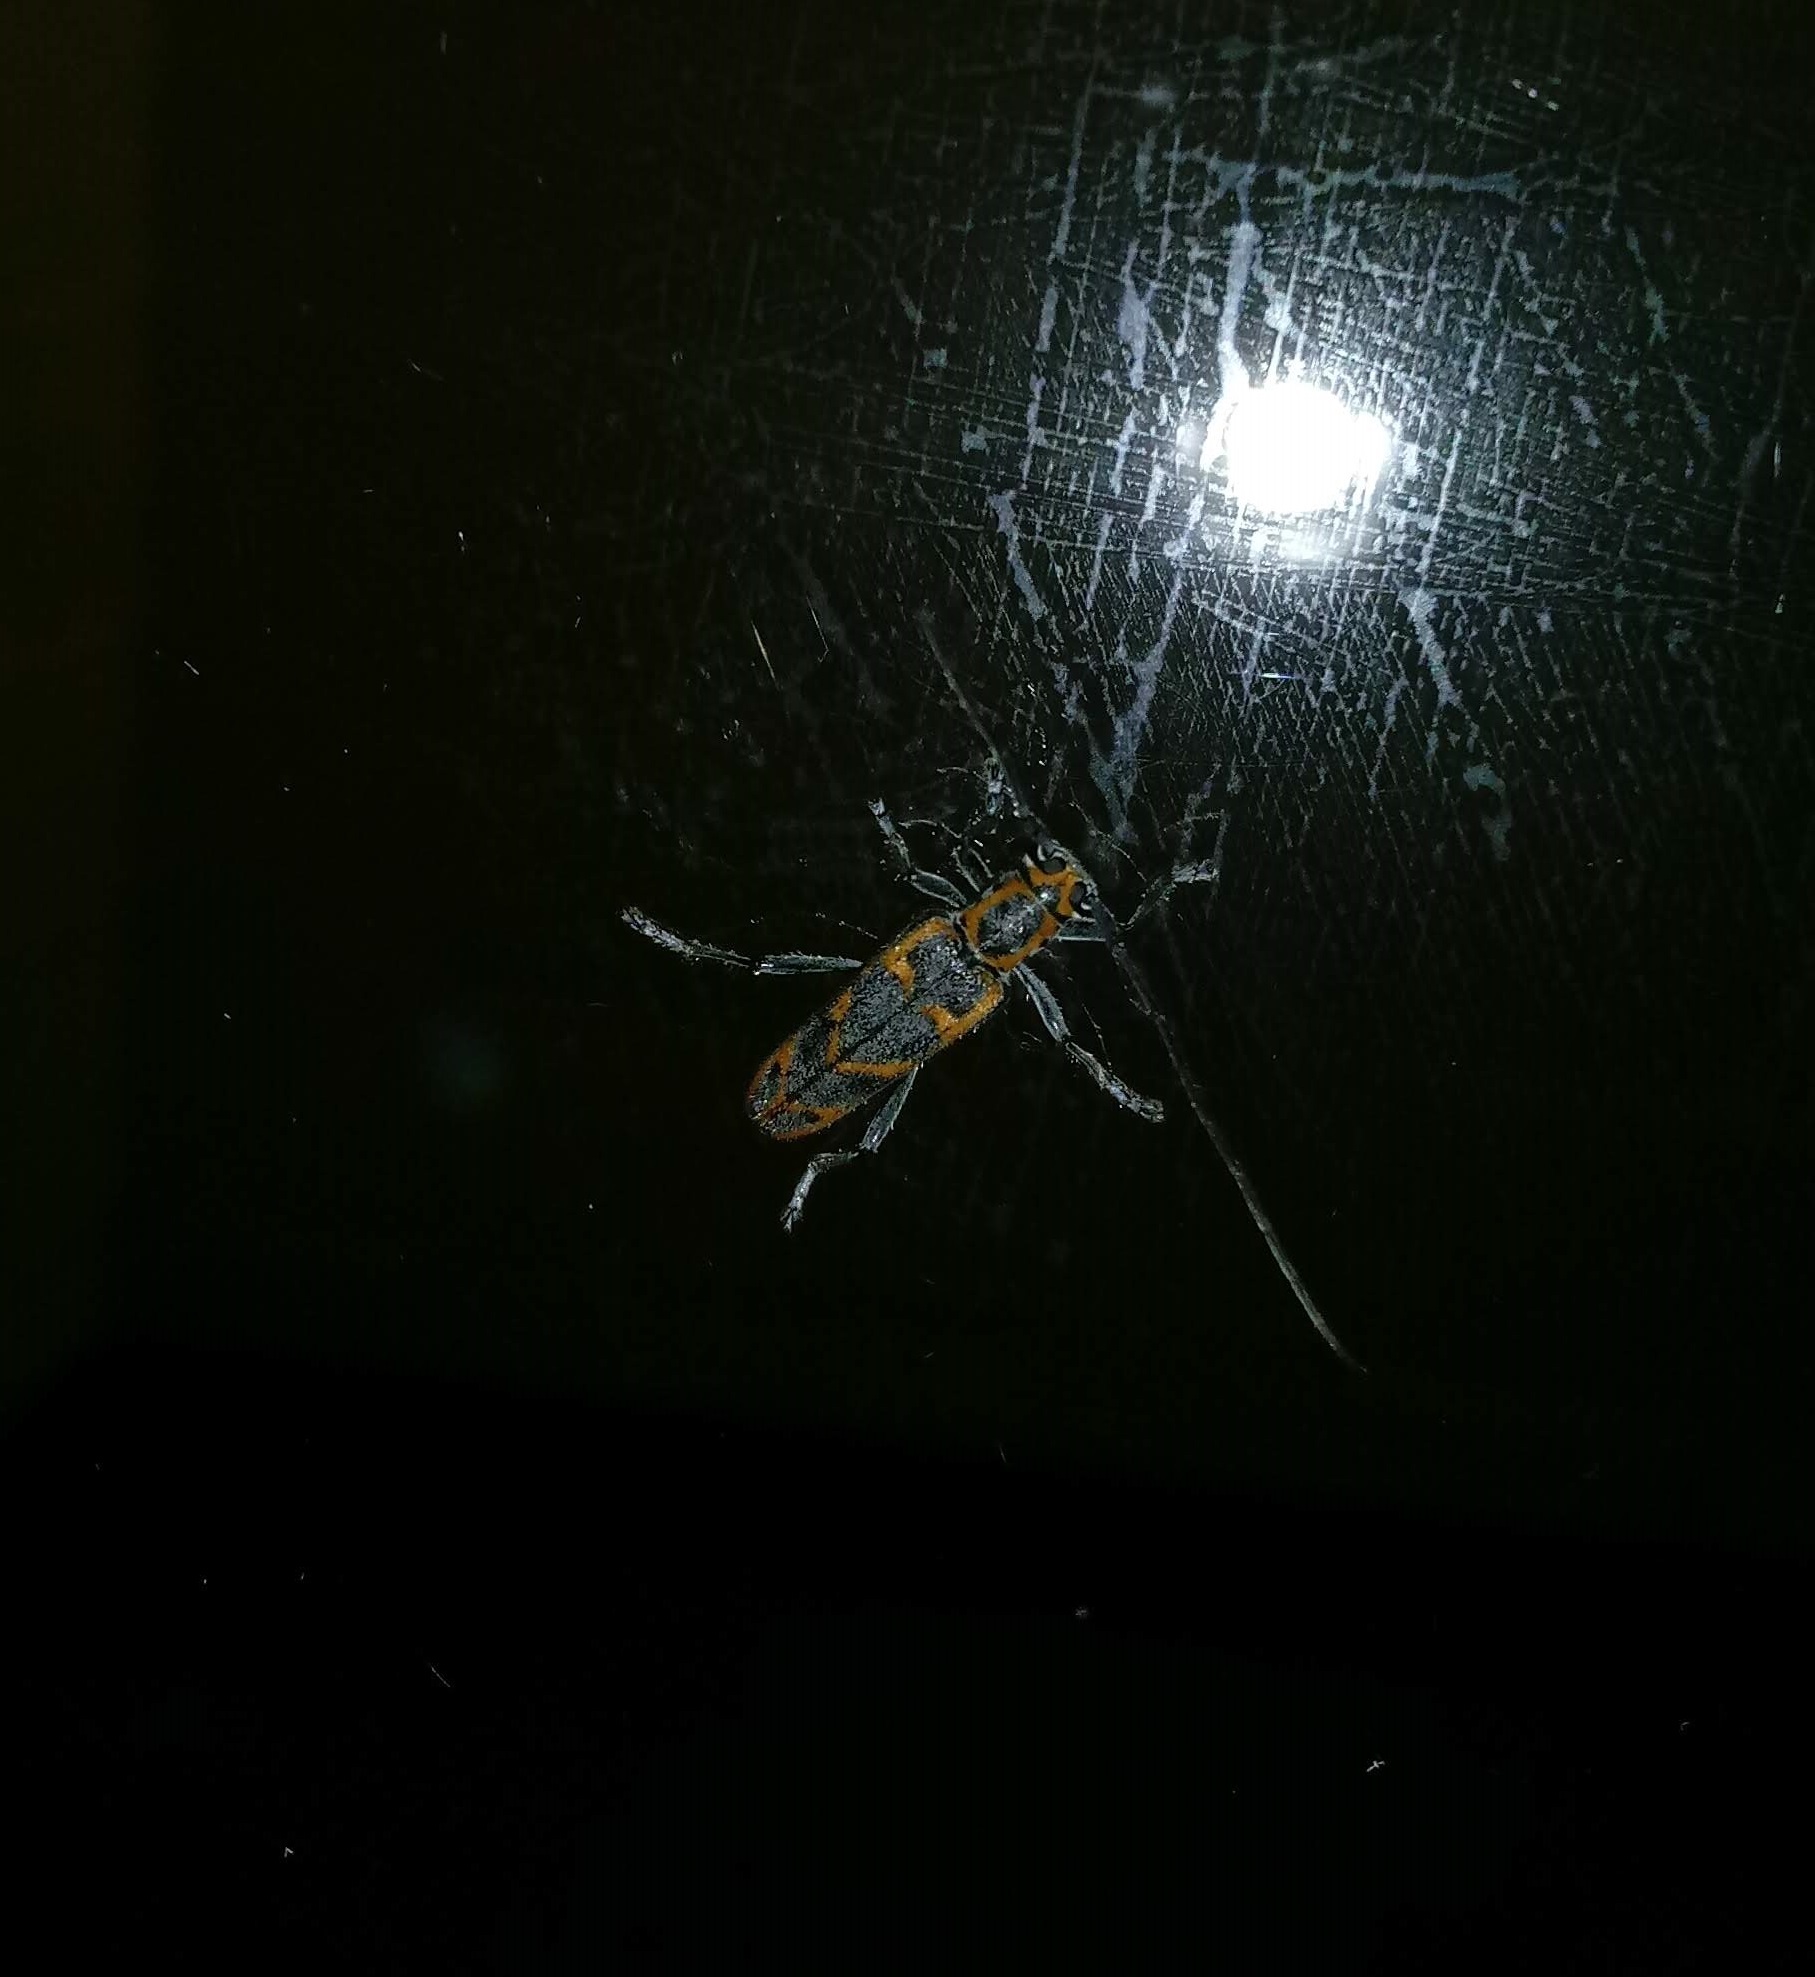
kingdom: Animalia
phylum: Arthropoda
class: Insecta
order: Coleoptera
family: Cerambycidae
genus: Saperda
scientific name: Saperda tridentata
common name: Elm borer
